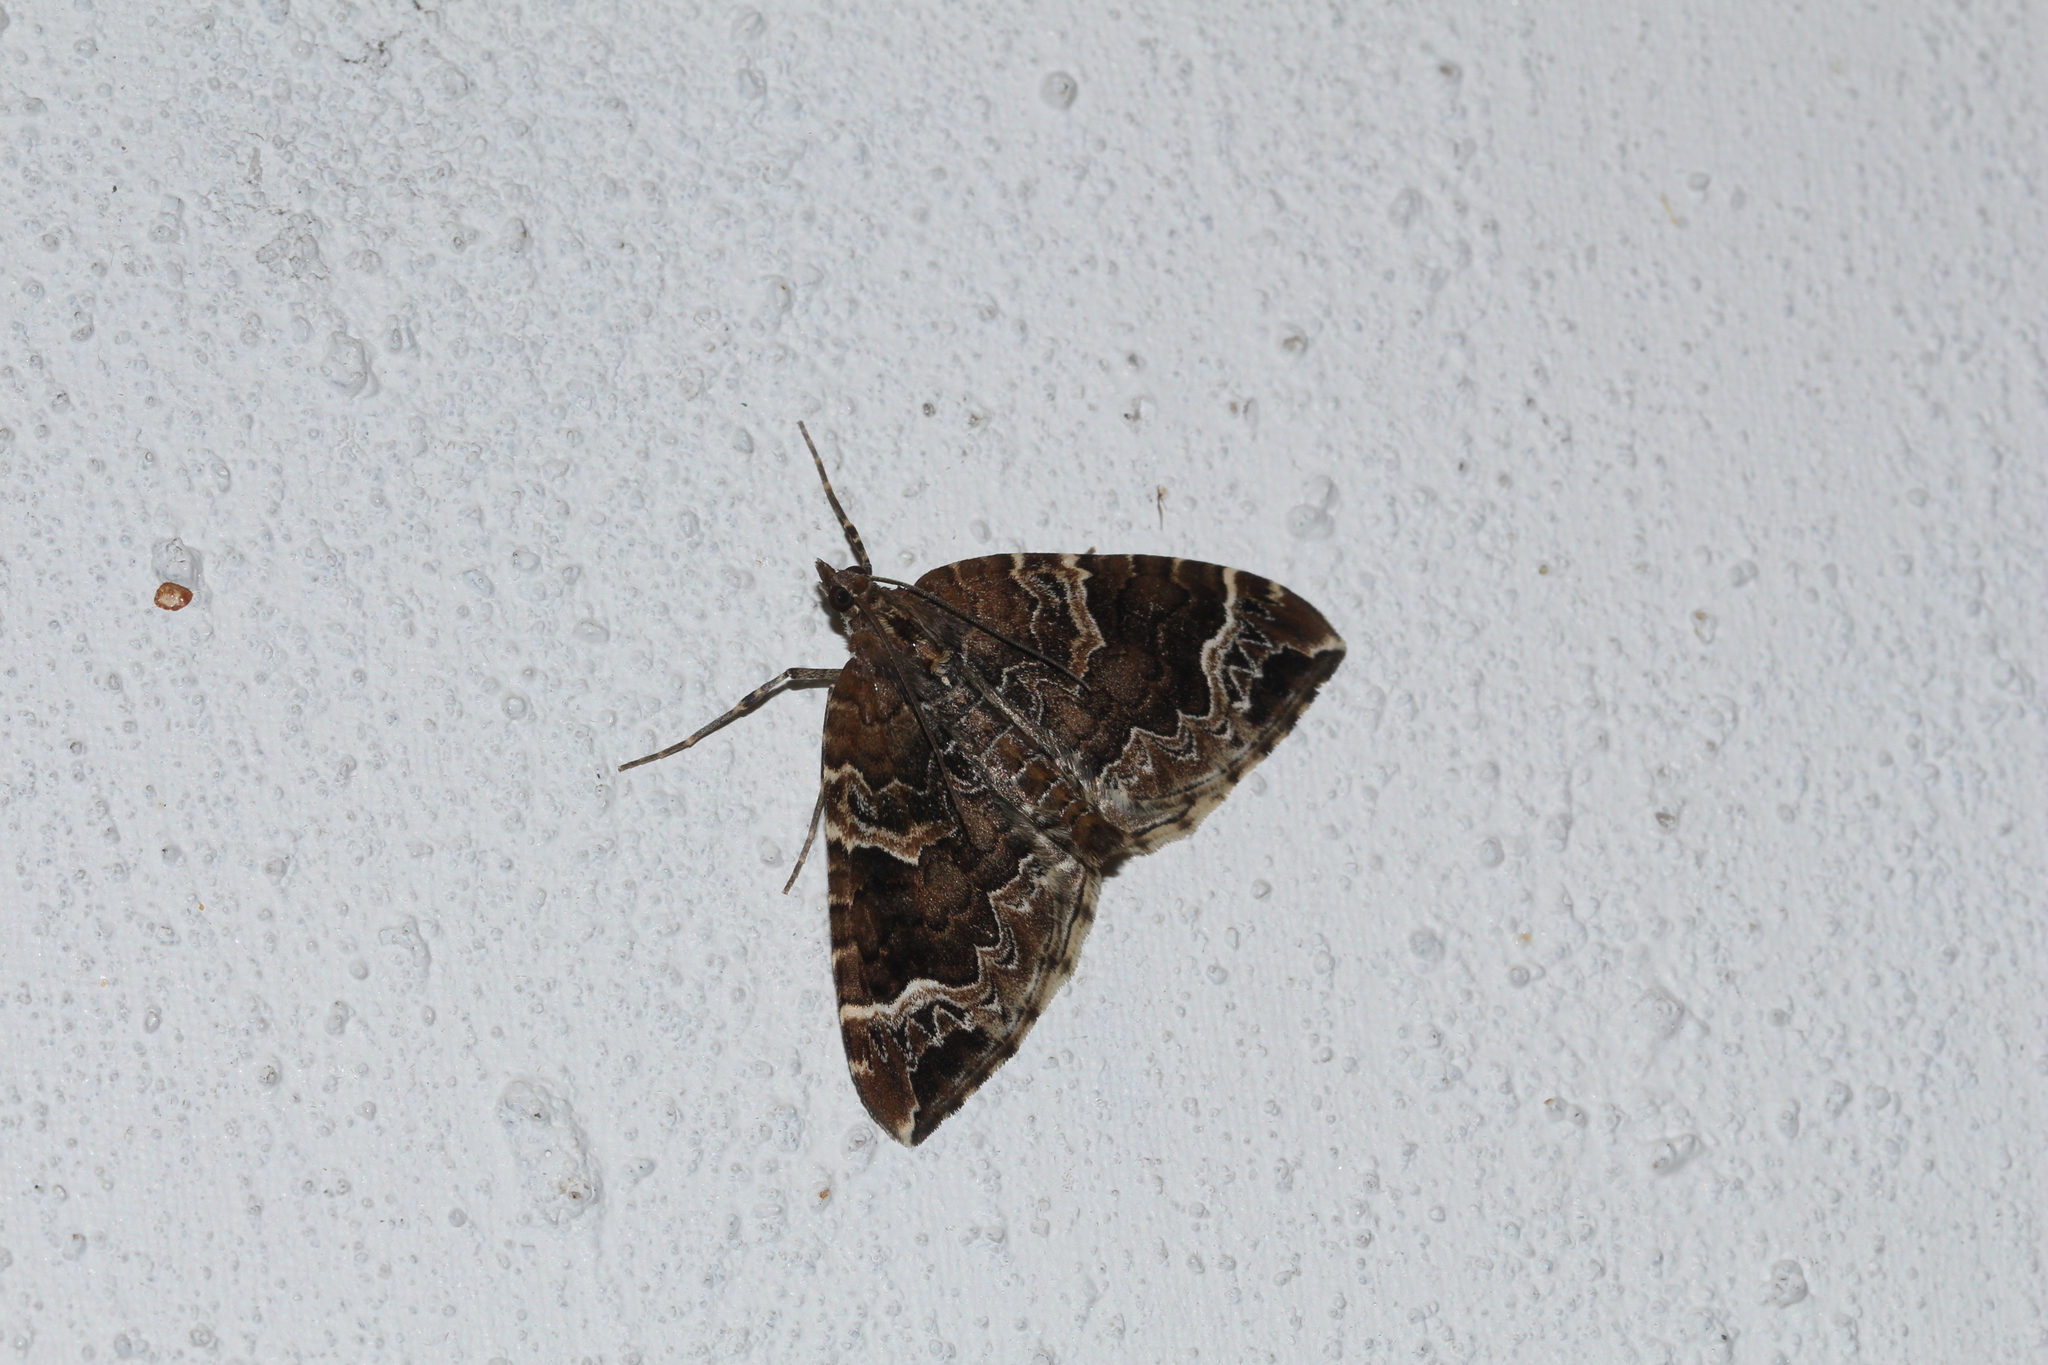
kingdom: Animalia
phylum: Arthropoda
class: Insecta
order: Lepidoptera
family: Geometridae
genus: Eulithis
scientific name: Eulithis prunata
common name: Phoenix
